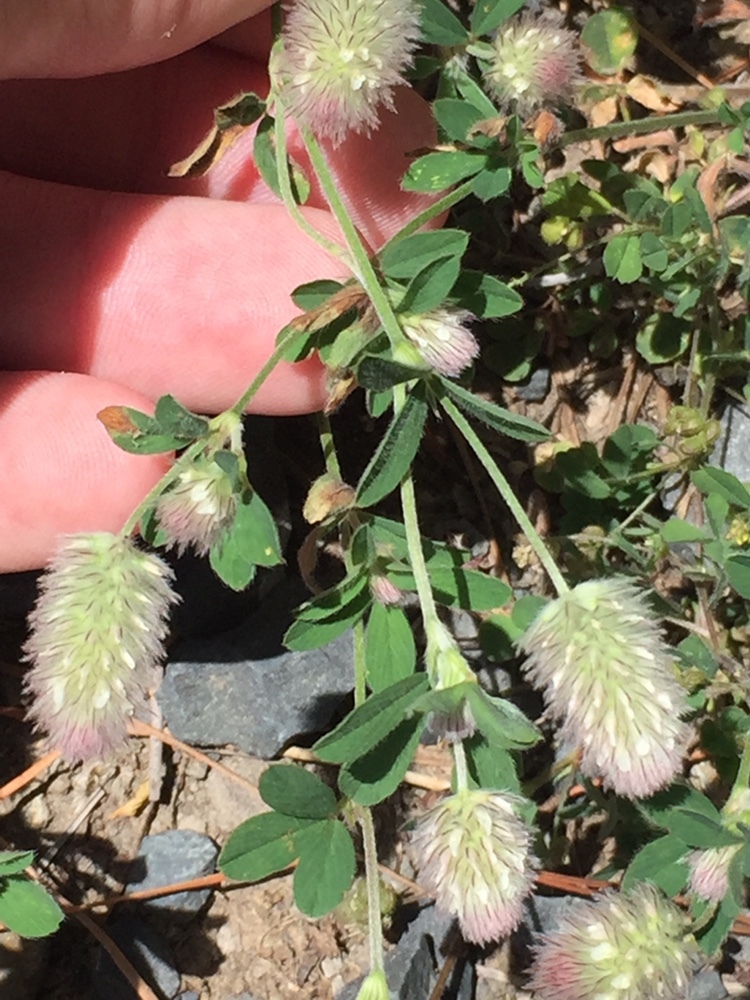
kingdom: Plantae
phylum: Tracheophyta
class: Magnoliopsida
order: Fabales
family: Fabaceae
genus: Trifolium
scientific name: Trifolium arvense
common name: Hare's-foot clover
